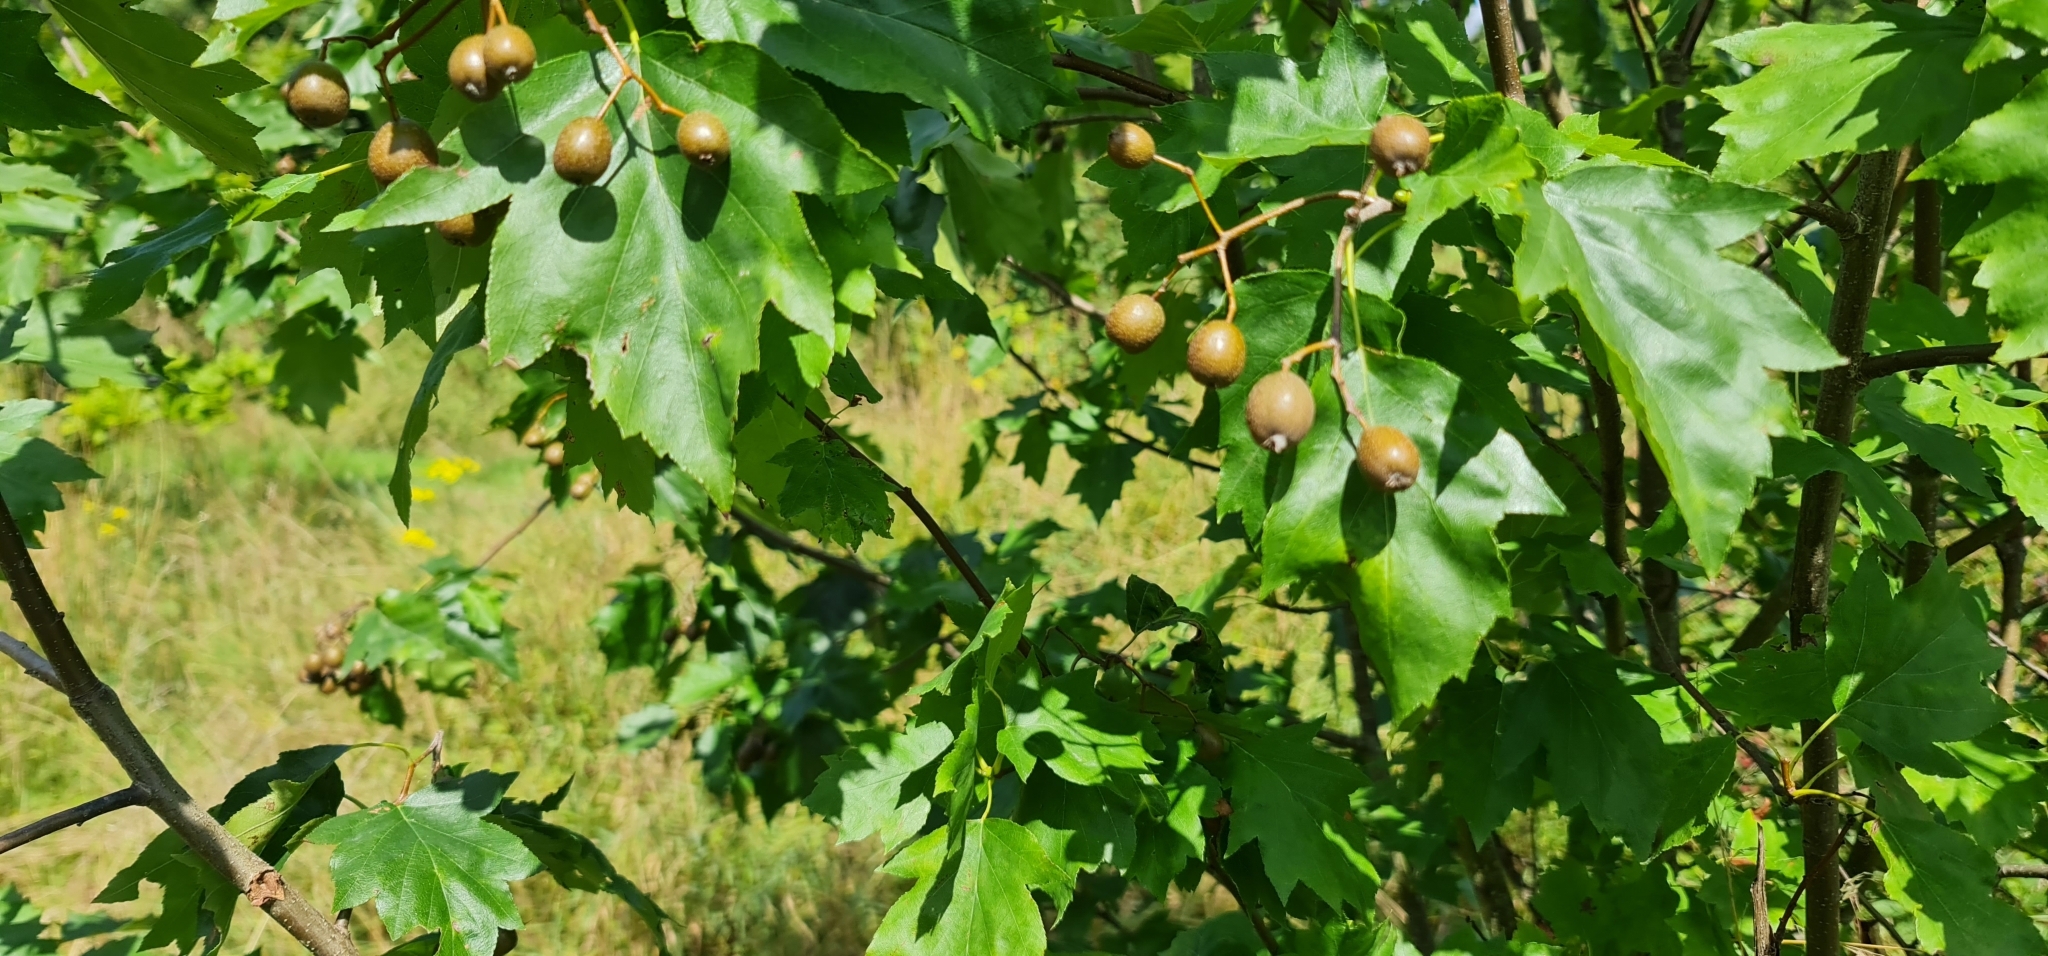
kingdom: Plantae
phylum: Tracheophyta
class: Magnoliopsida
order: Rosales
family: Rosaceae
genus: Torminalis
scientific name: Torminalis glaberrima
